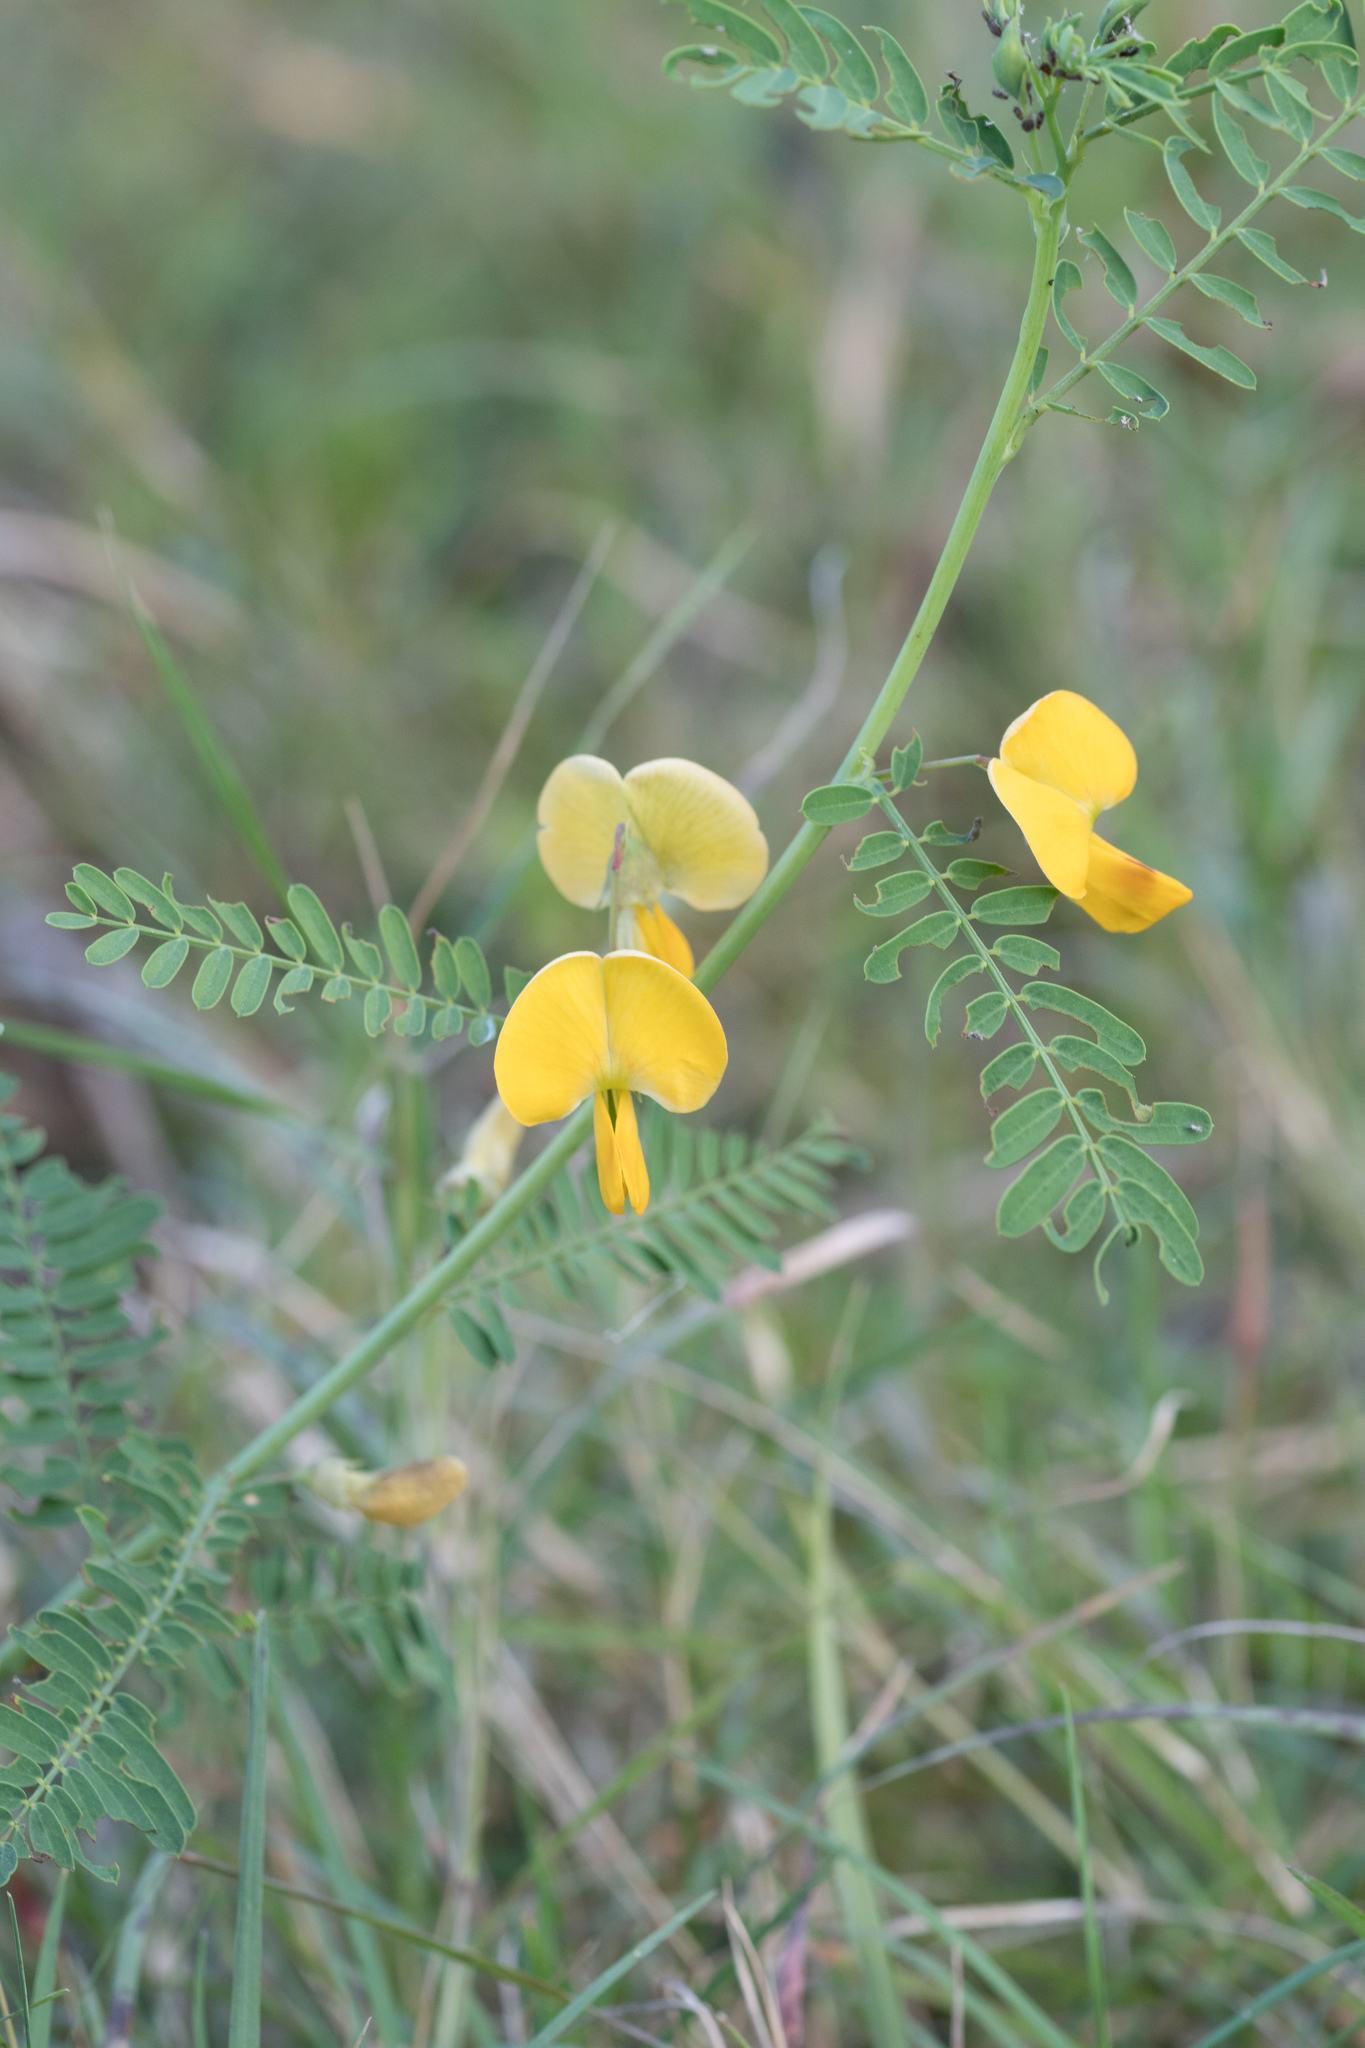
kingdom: Plantae
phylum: Tracheophyta
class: Magnoliopsida
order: Fabales
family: Fabaceae
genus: Sesbania
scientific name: Sesbania herbacea
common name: Bigpod sesbania
